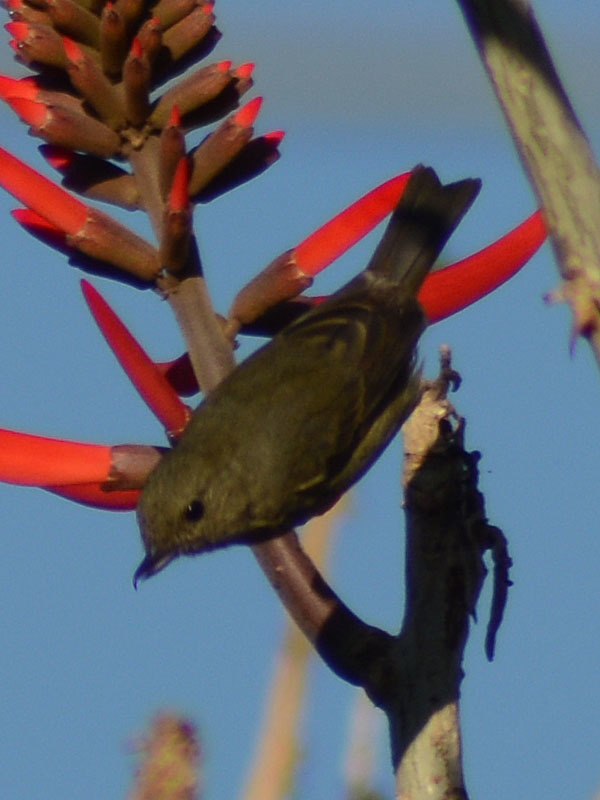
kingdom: Animalia
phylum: Chordata
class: Aves
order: Passeriformes
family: Thraupidae
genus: Diglossa
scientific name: Diglossa baritula
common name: Cinnamon-bellied flowerpiercer
